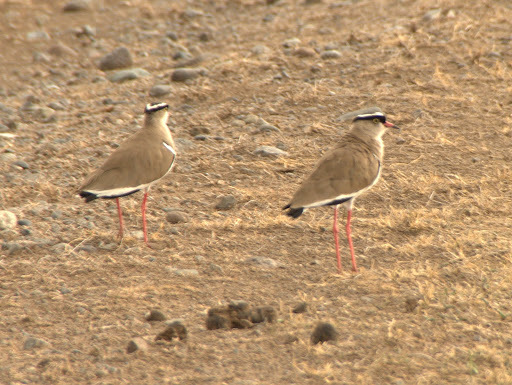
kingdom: Animalia
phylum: Chordata
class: Aves
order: Charadriiformes
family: Charadriidae
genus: Vanellus
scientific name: Vanellus coronatus
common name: Crowned lapwing
